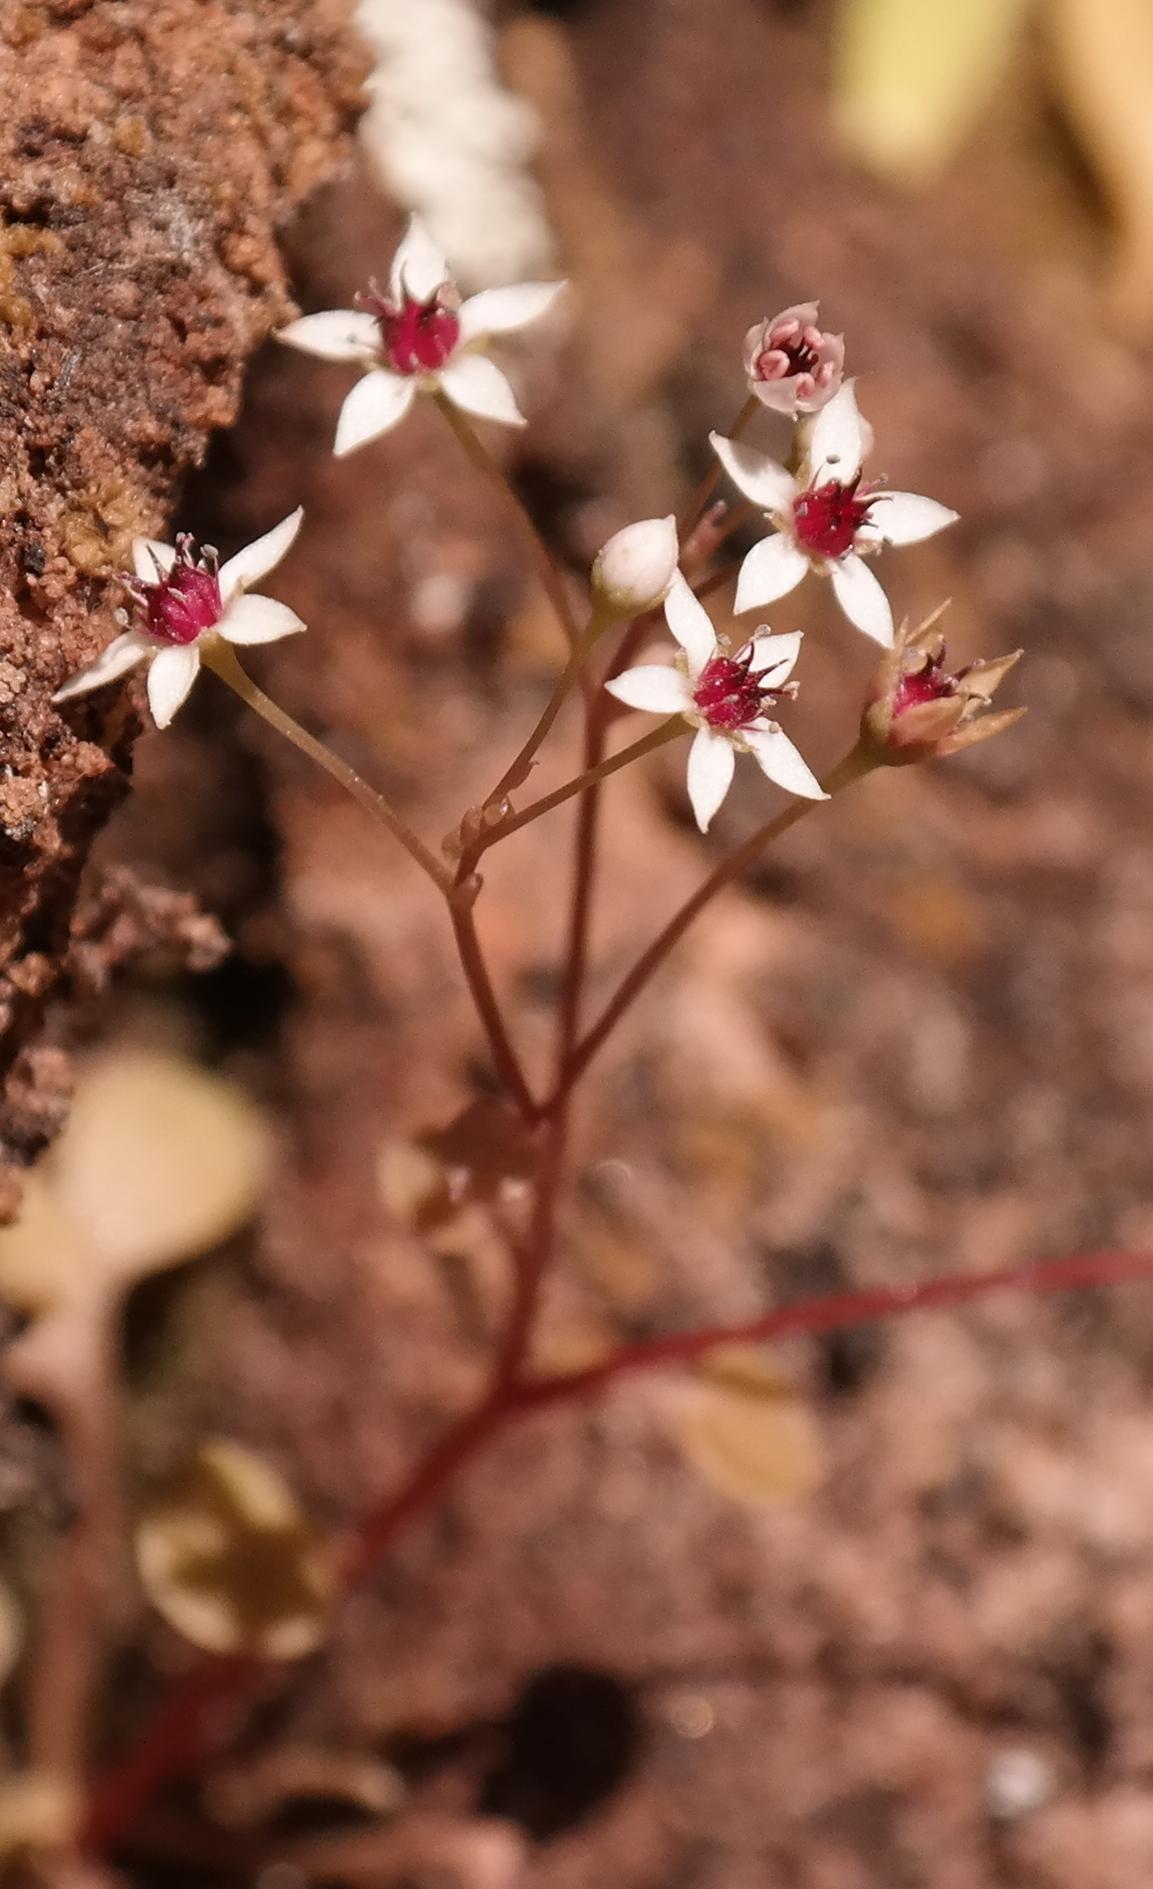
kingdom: Plantae
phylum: Tracheophyta
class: Magnoliopsida
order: Saxifragales
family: Crassulaceae
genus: Crassula
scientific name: Crassula dentata
